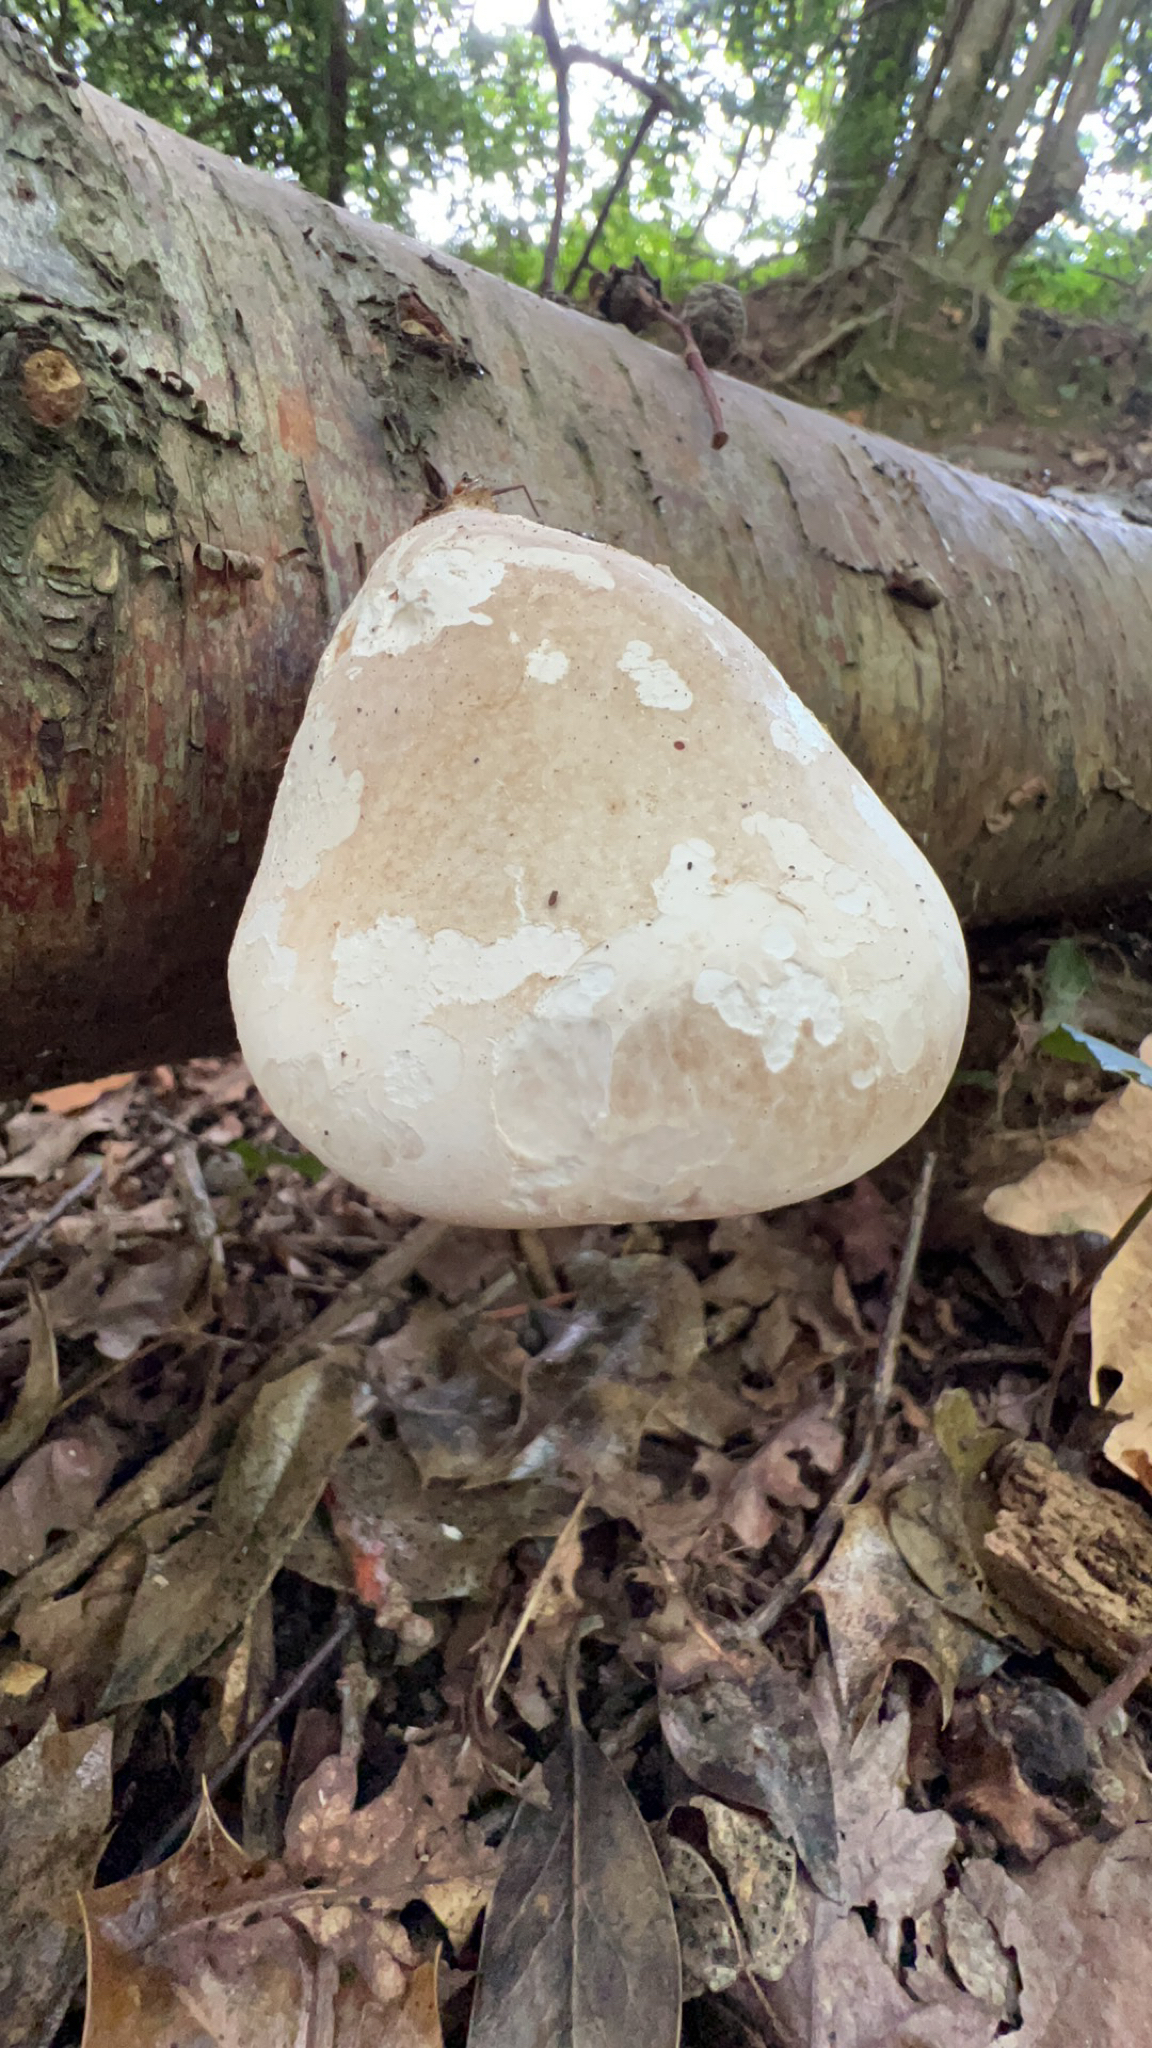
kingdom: Fungi
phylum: Basidiomycota
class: Agaricomycetes
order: Polyporales
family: Fomitopsidaceae
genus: Fomitopsis
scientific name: Fomitopsis betulina
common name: Birch polypore
